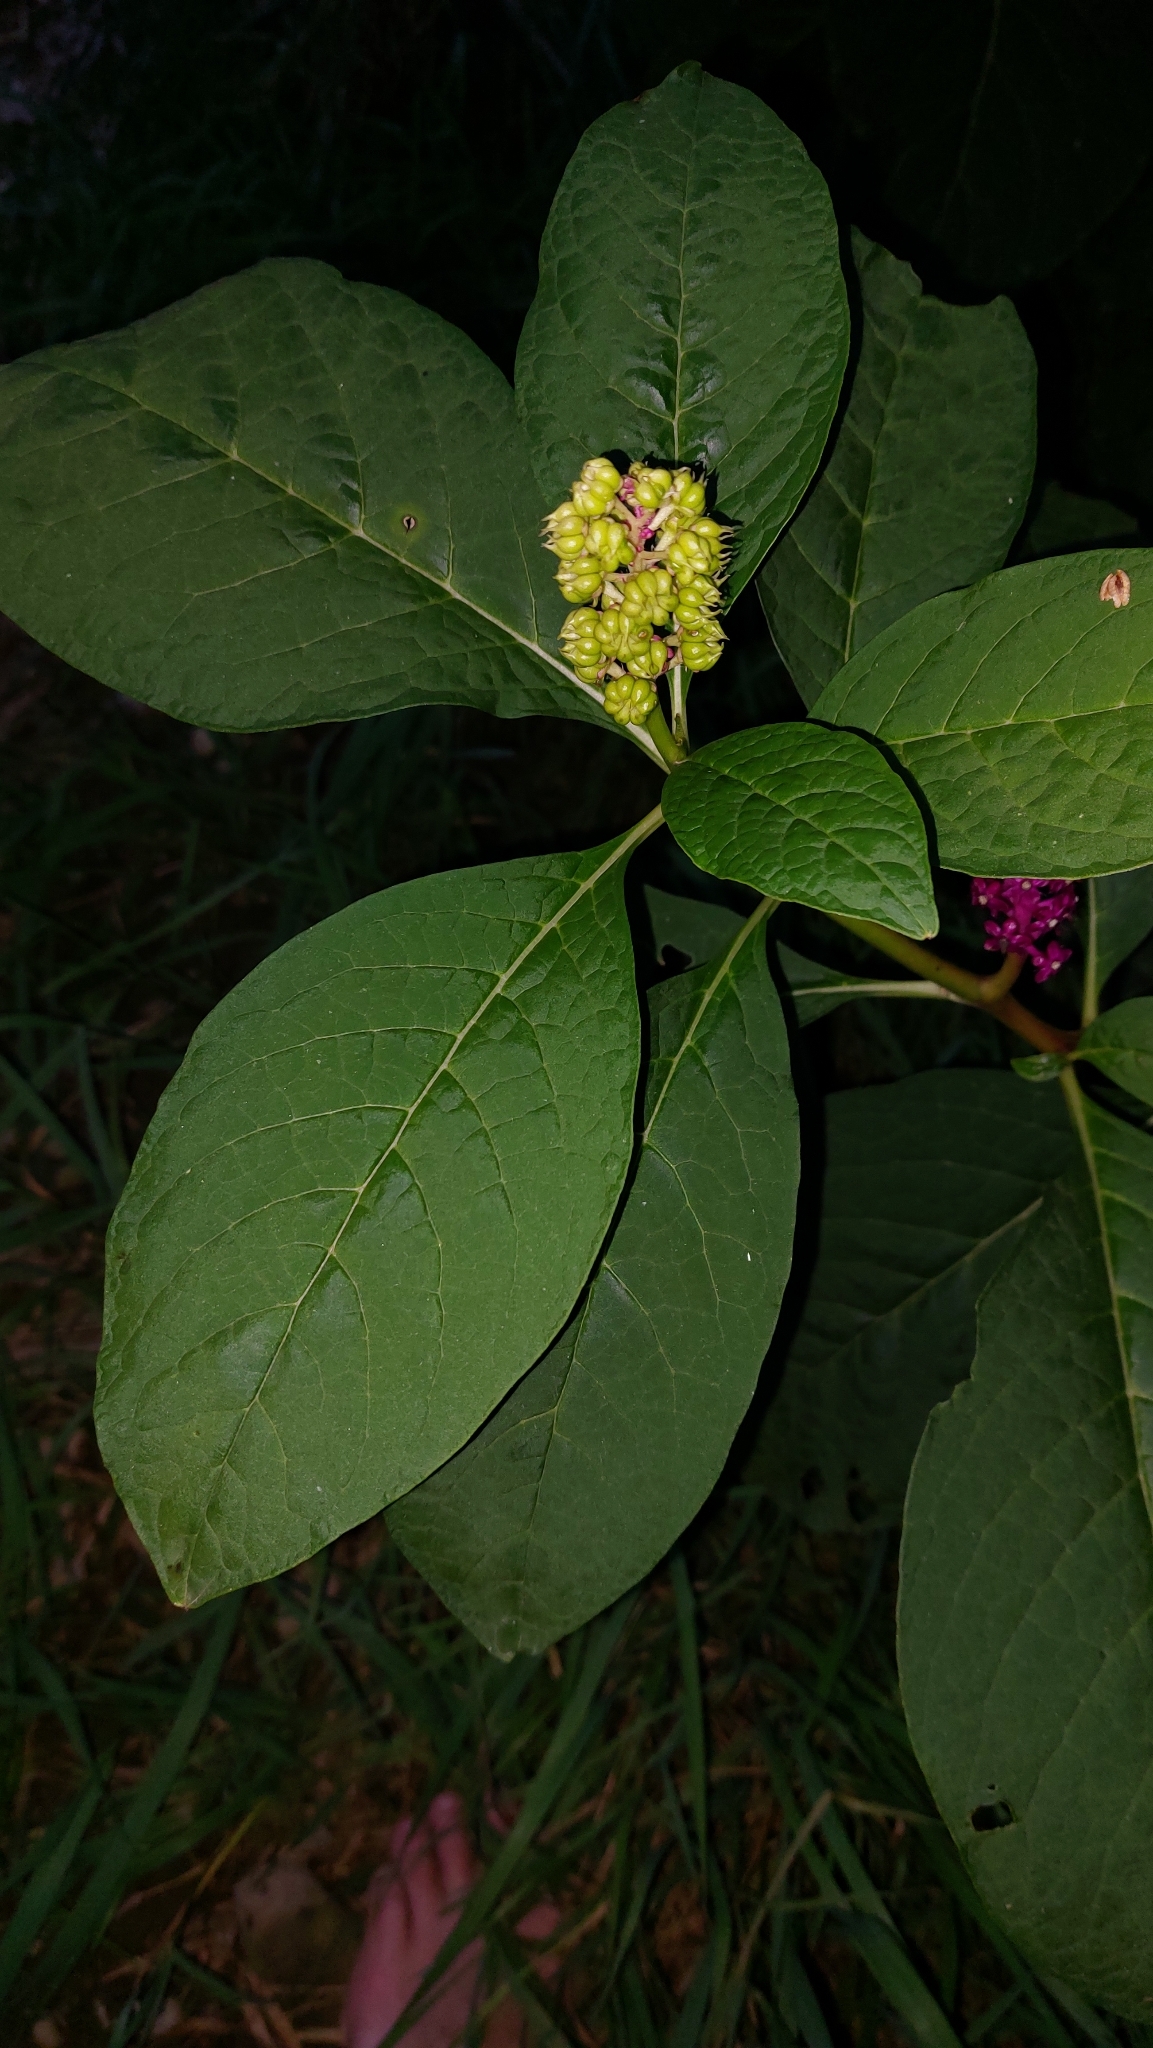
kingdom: Plantae
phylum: Tracheophyta
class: Magnoliopsida
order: Caryophyllales
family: Phytolaccaceae
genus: Phytolacca
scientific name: Phytolacca acinosa
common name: Indian pokeweed
